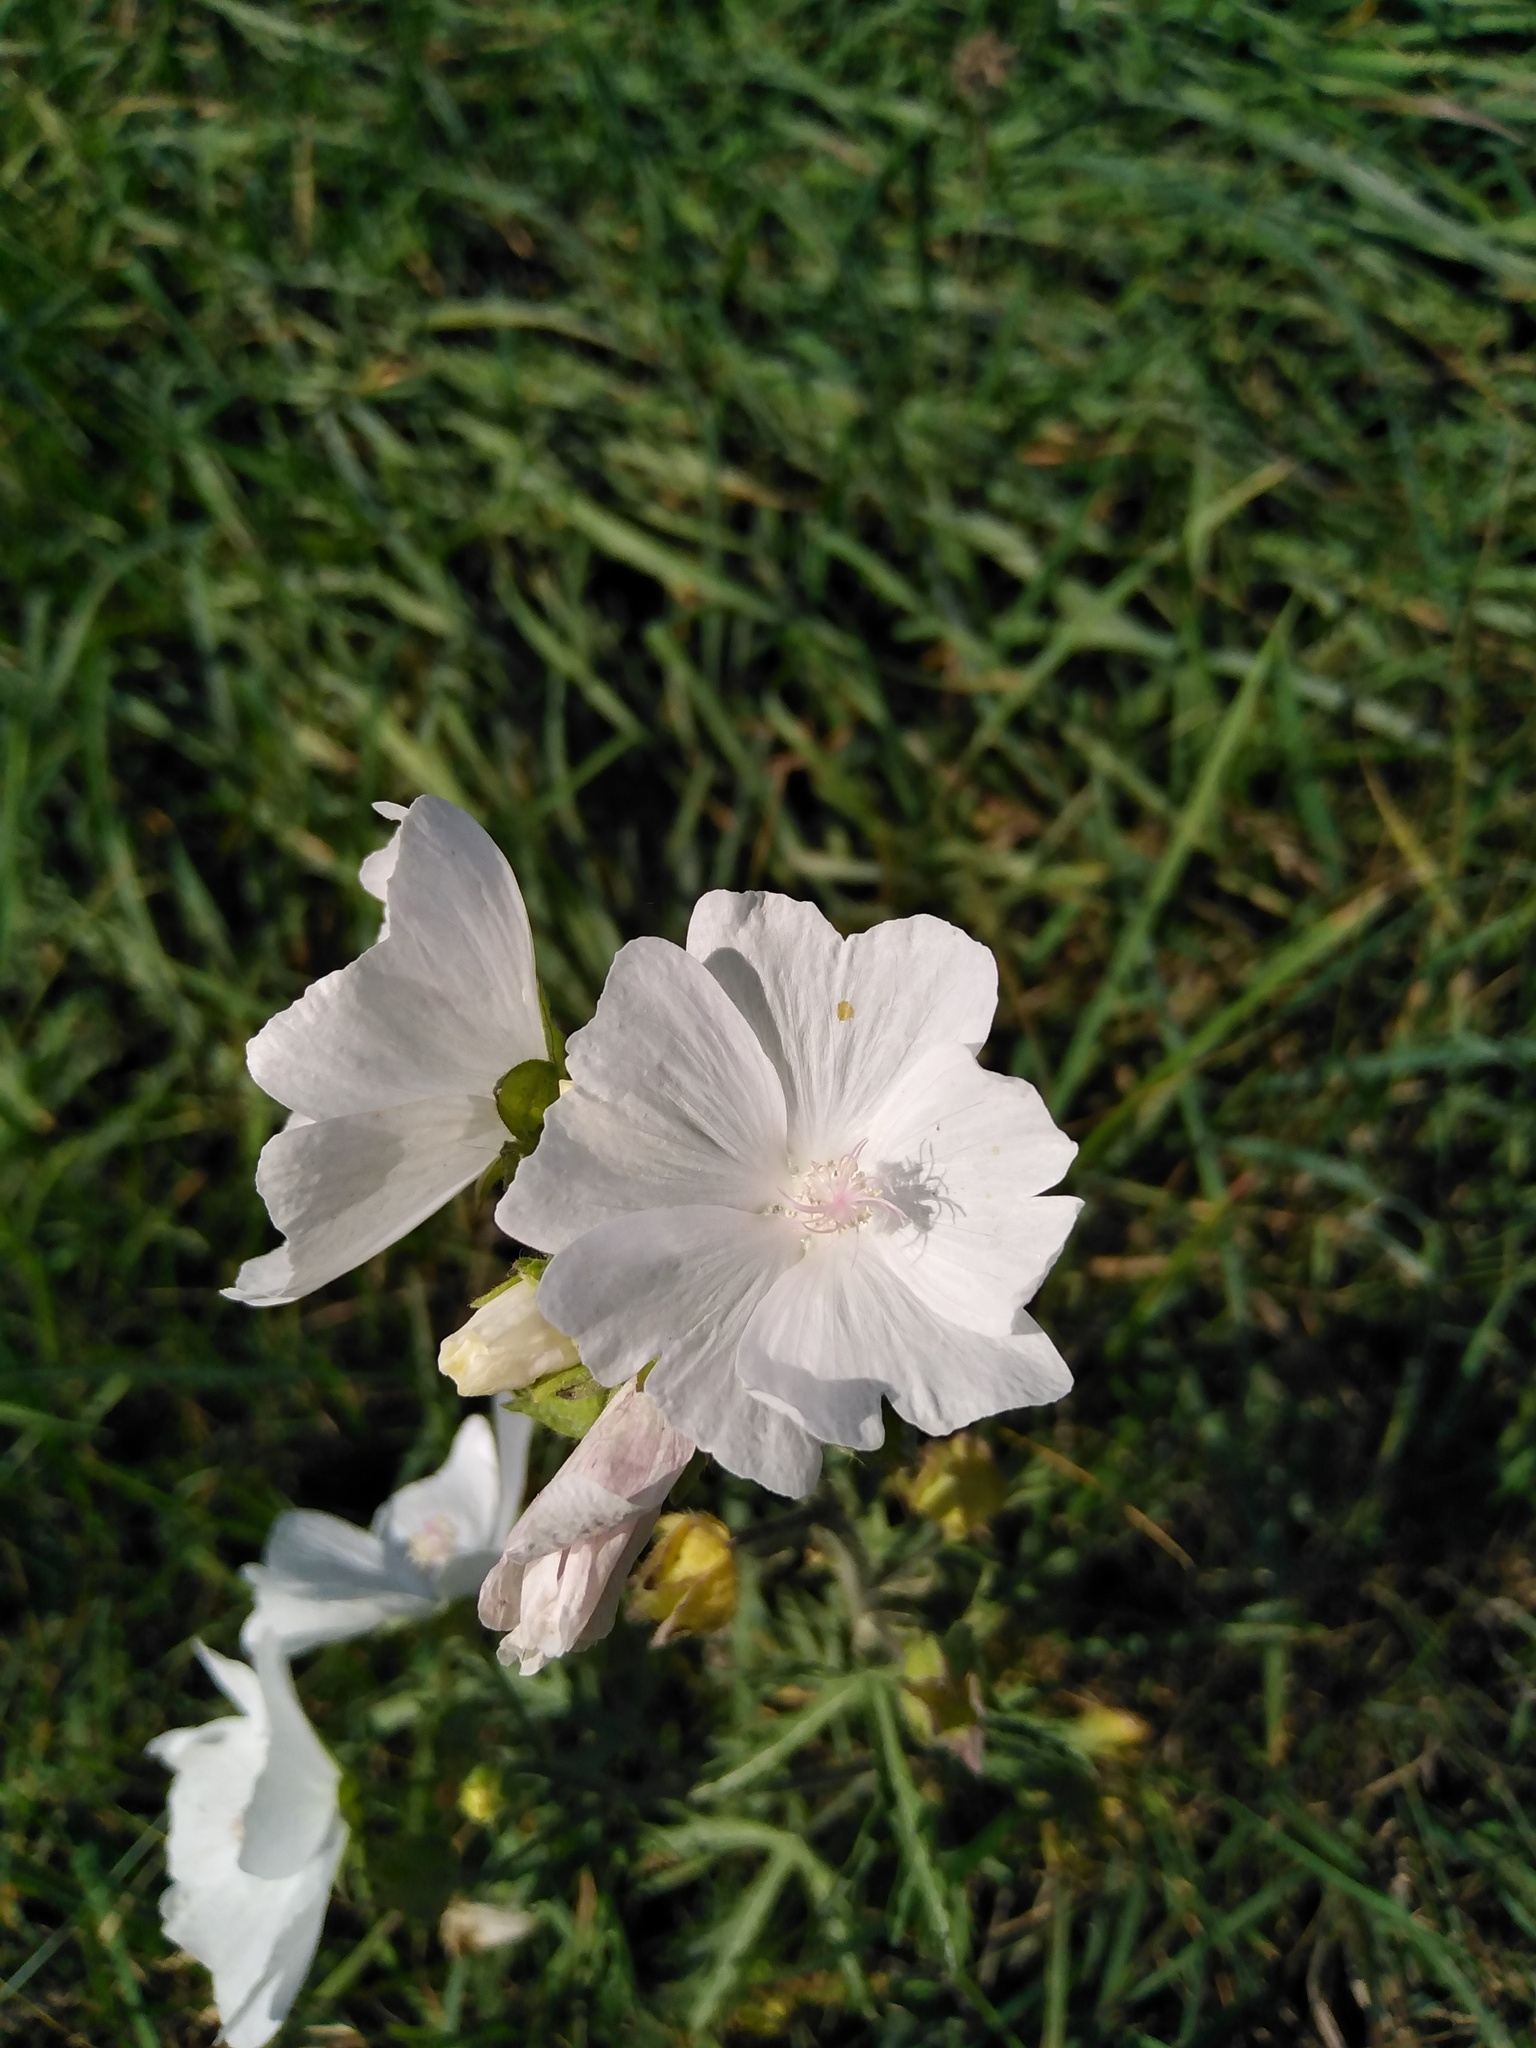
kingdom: Plantae
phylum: Tracheophyta
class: Magnoliopsida
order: Malvales
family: Malvaceae
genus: Malva
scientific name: Malva moschata
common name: Musk mallow
